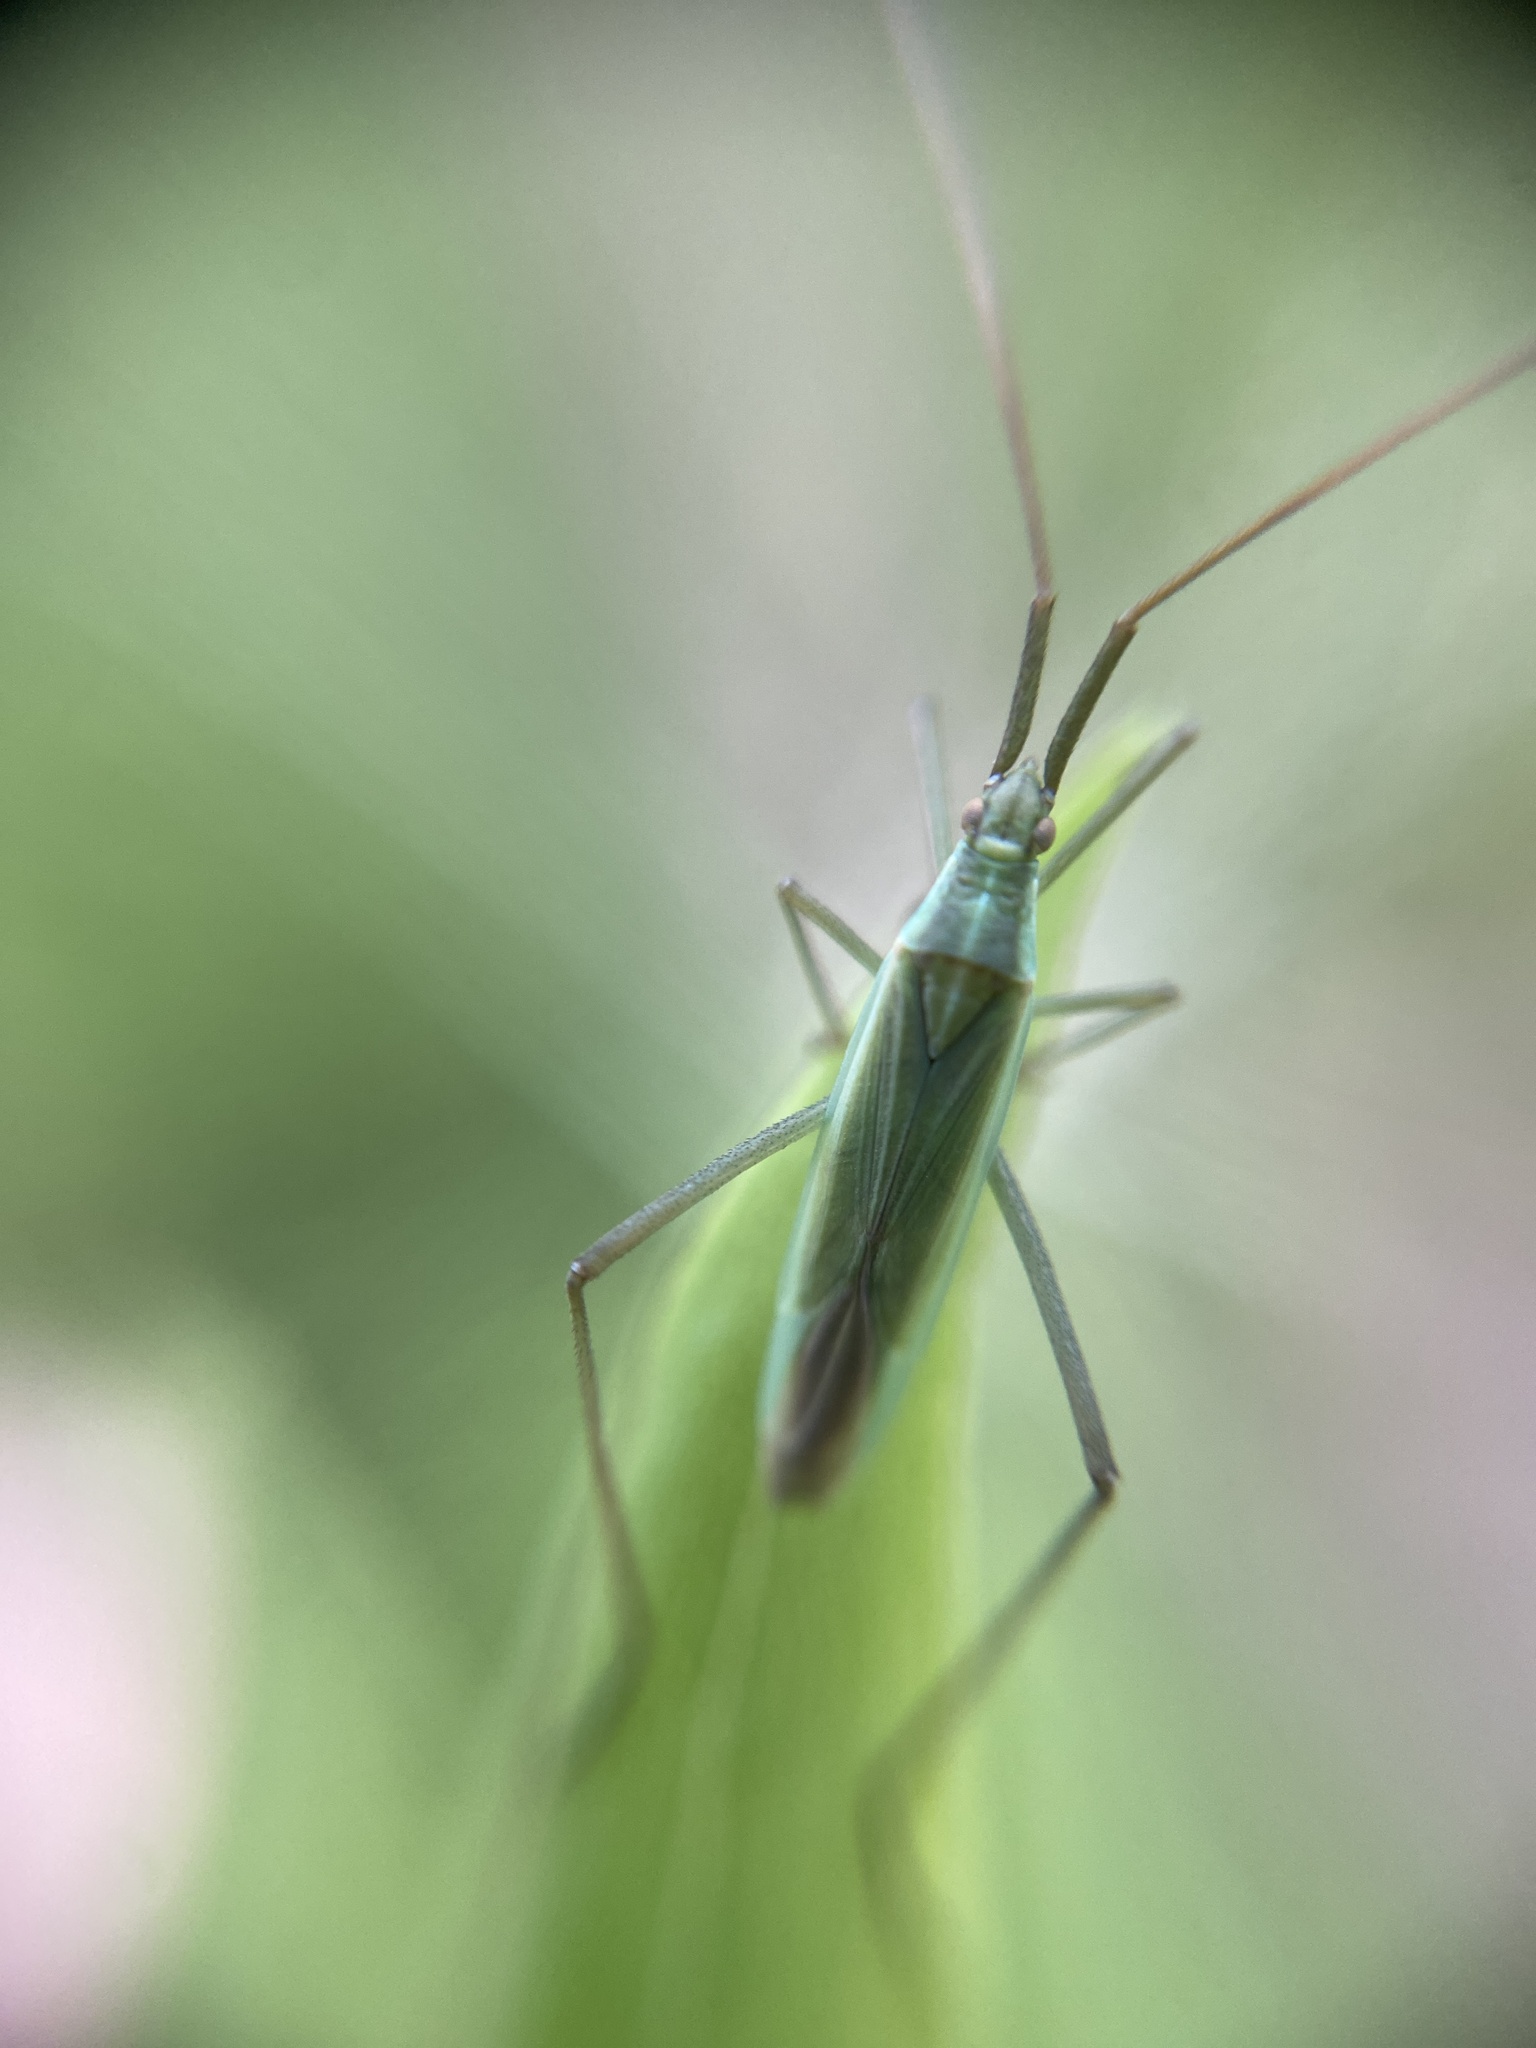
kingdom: Animalia
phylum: Arthropoda
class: Insecta
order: Hemiptera
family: Miridae
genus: Megaloceroea
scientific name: Megaloceroea recticornis
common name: Plant bug
